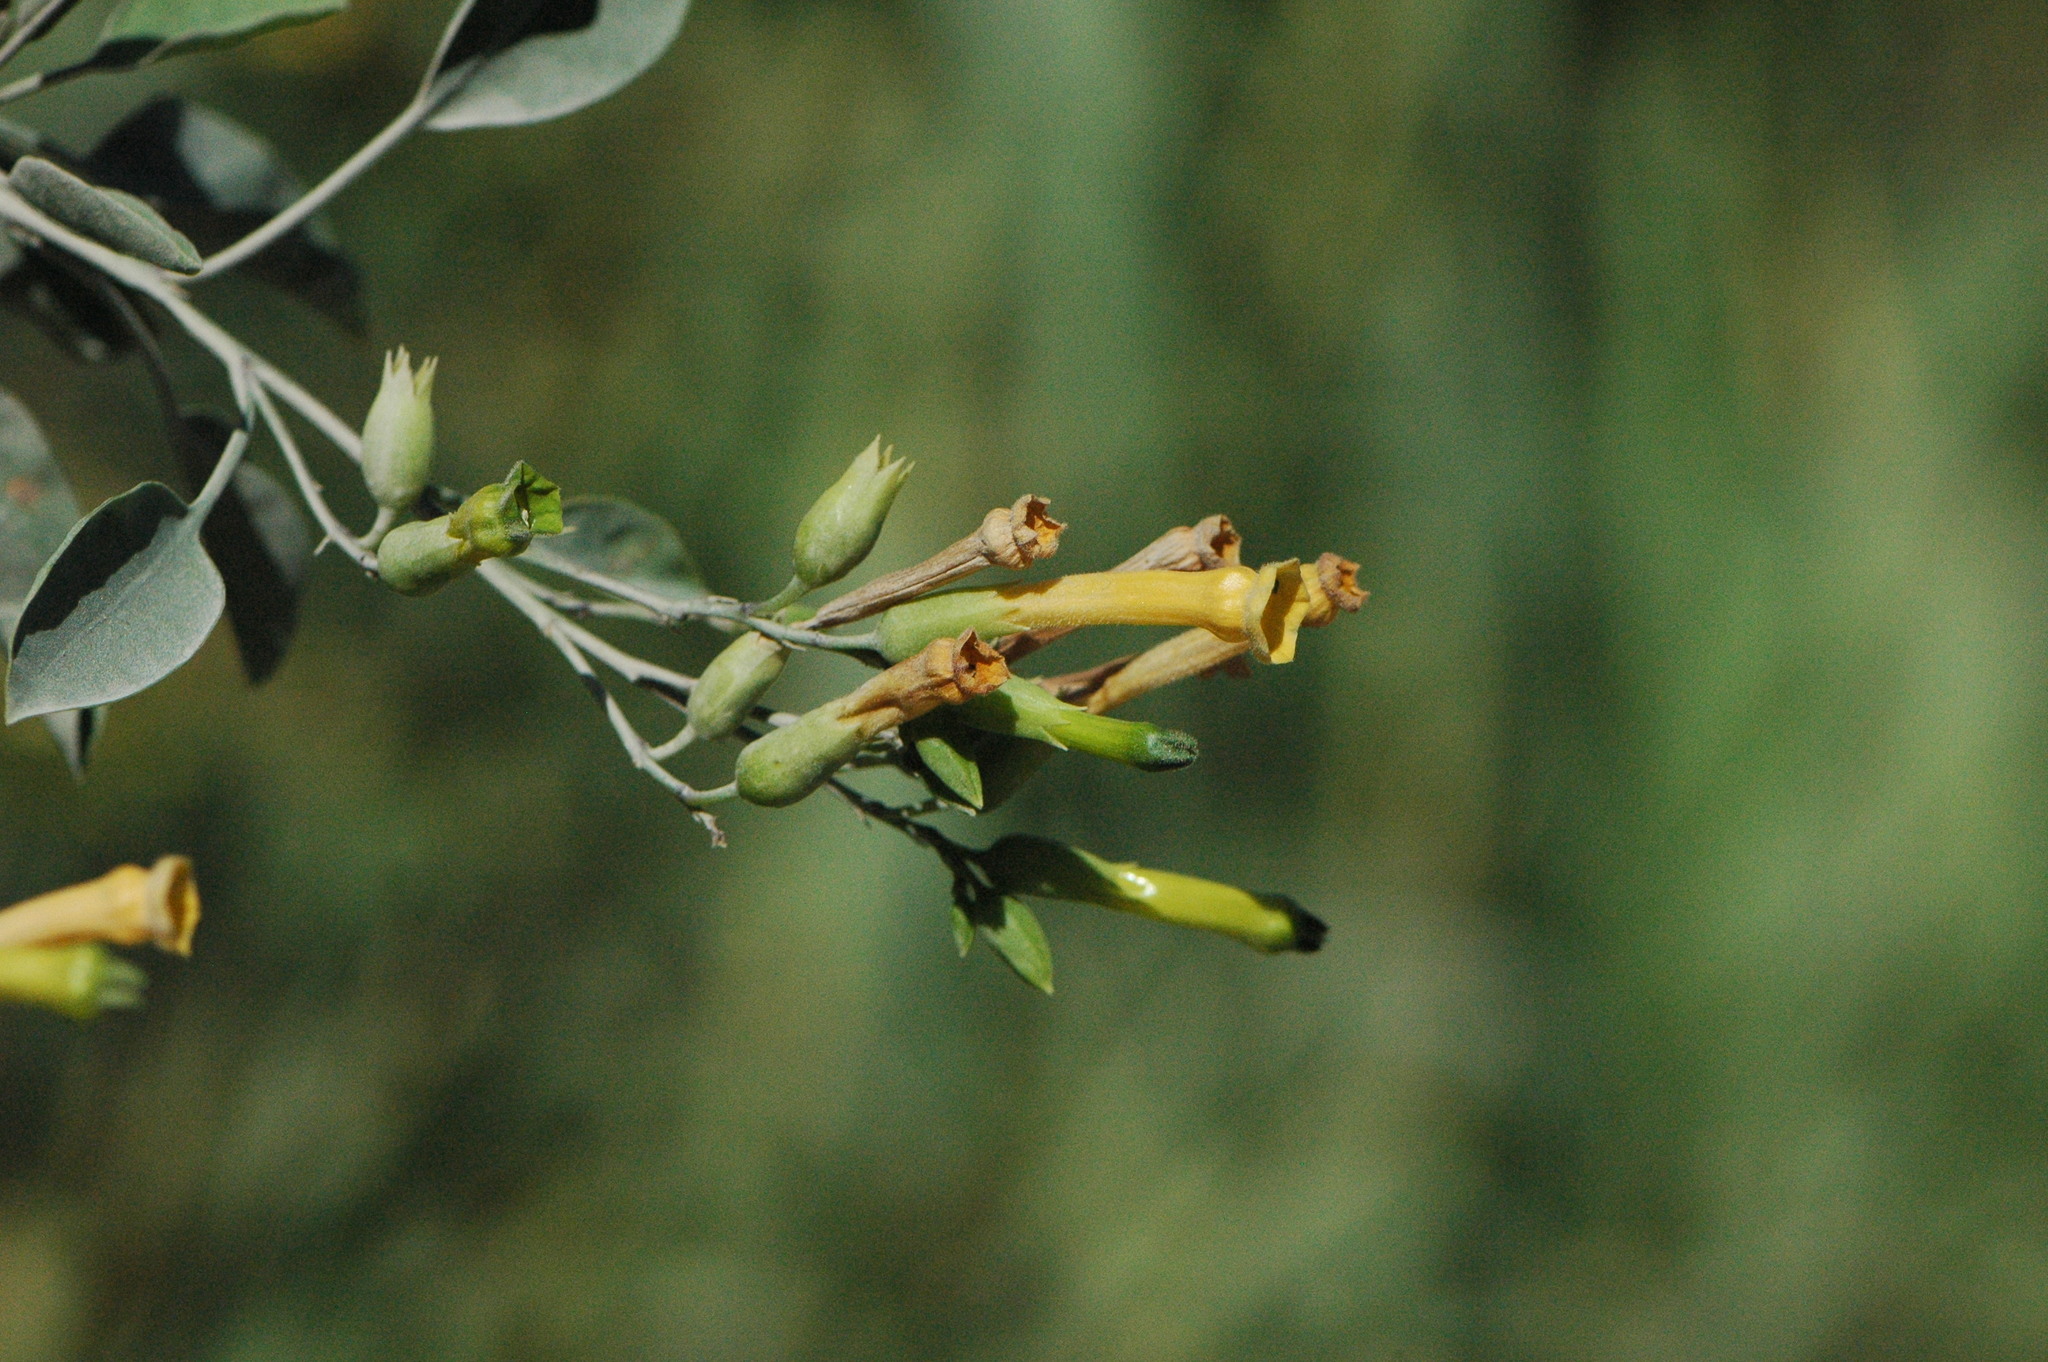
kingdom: Plantae
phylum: Tracheophyta
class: Magnoliopsida
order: Solanales
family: Solanaceae
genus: Nicotiana
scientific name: Nicotiana glauca
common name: Tree tobacco
